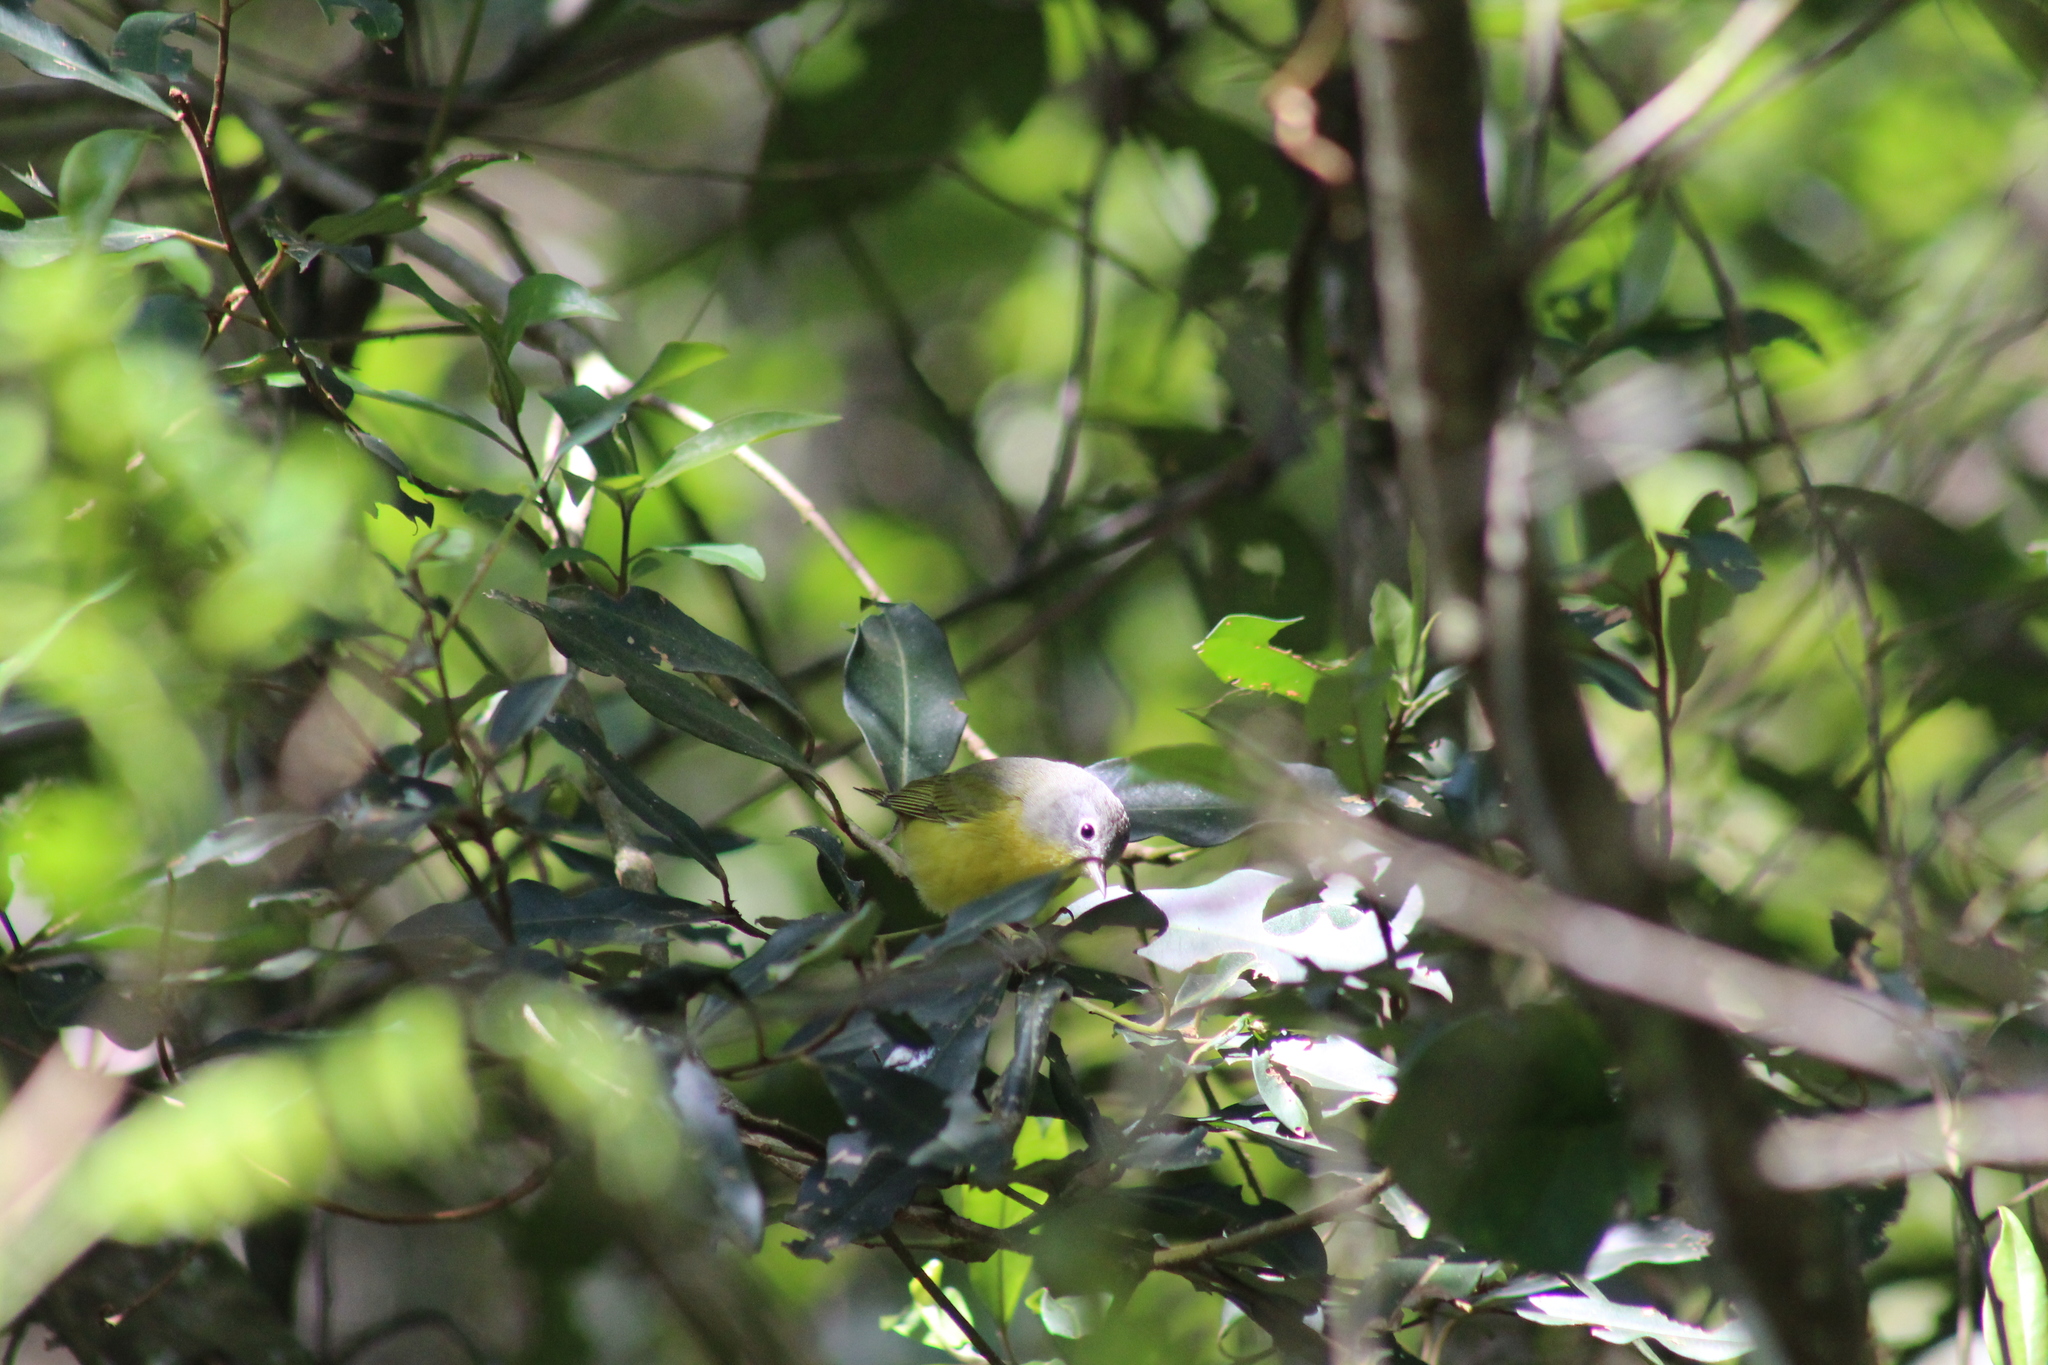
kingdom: Animalia
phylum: Chordata
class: Aves
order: Passeriformes
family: Parulidae
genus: Leiothlypis
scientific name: Leiothlypis ruficapilla
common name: Nashville warbler
